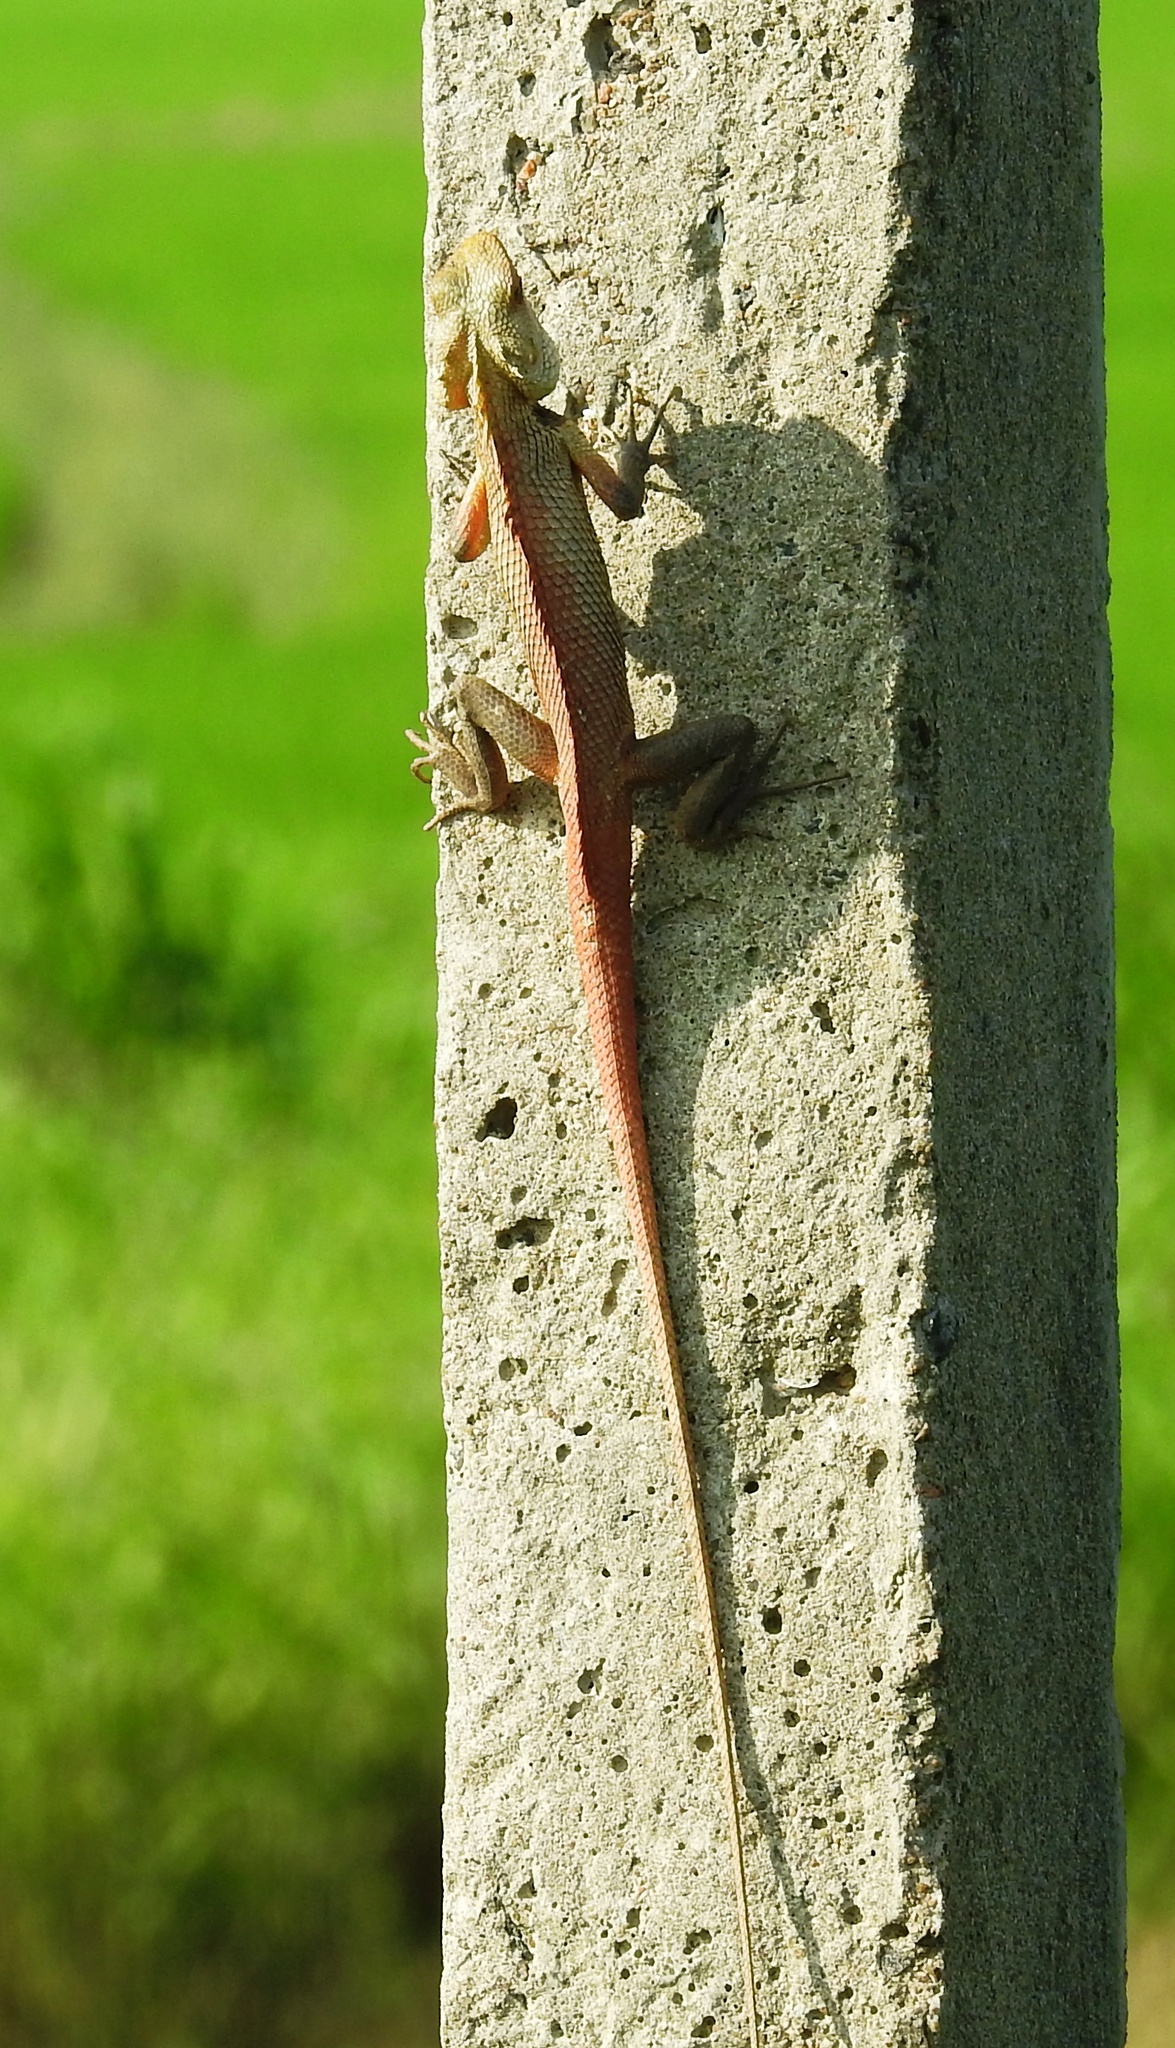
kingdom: Animalia
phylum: Chordata
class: Squamata
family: Agamidae
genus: Calotes
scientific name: Calotes versicolor
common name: Oriental garden lizard
